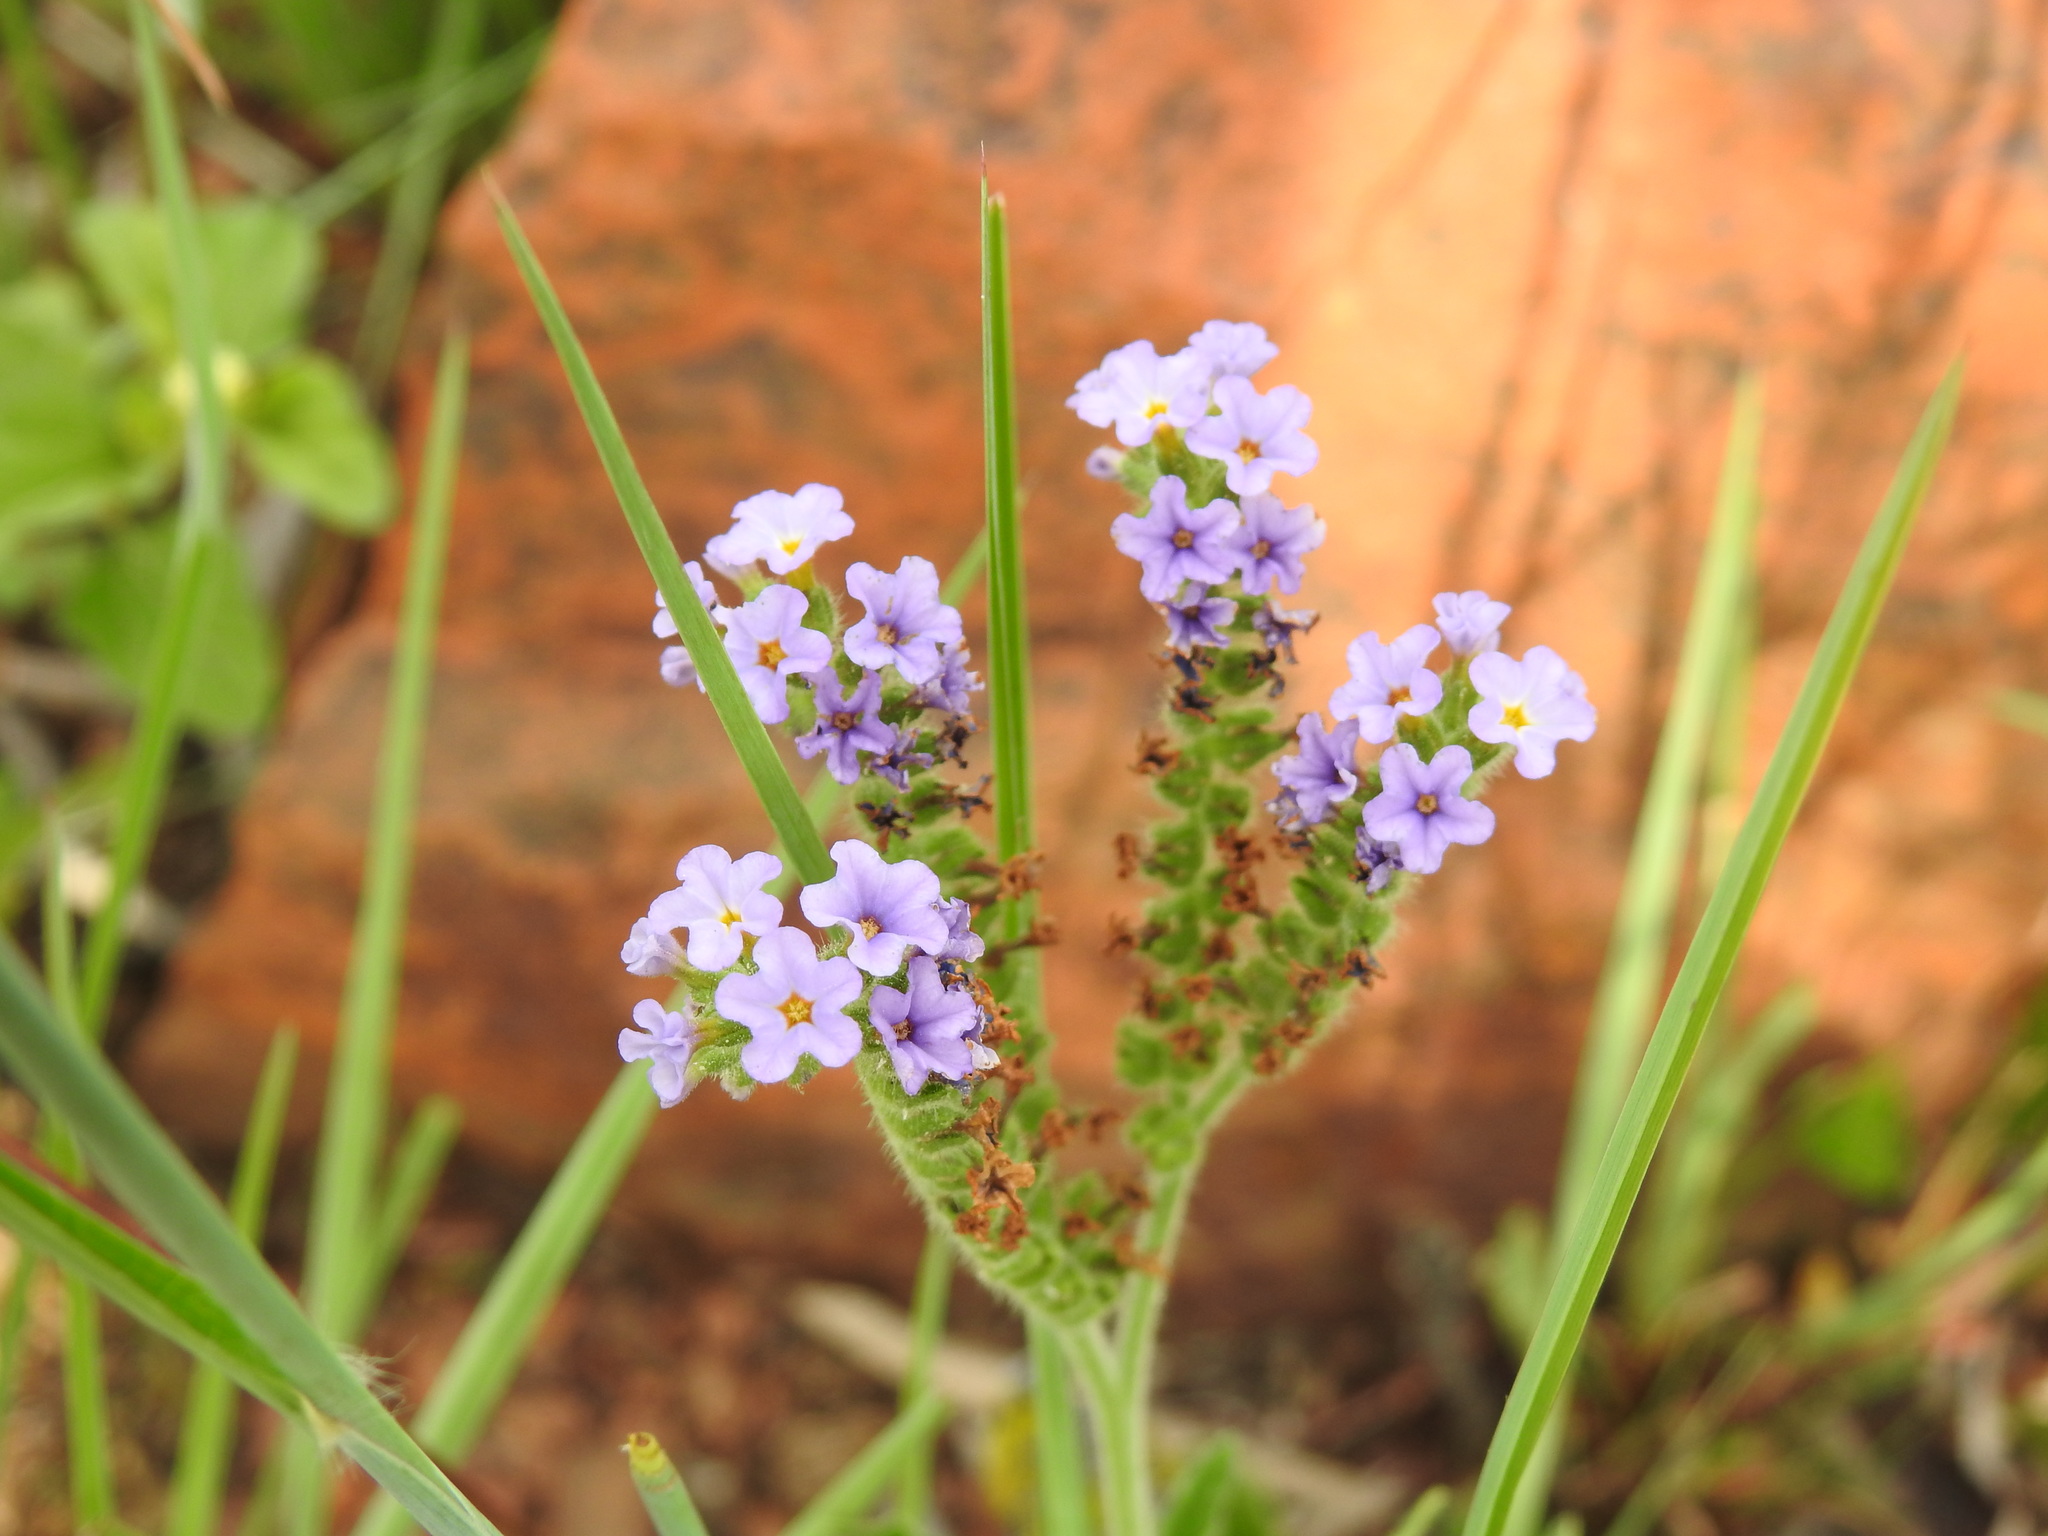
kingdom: Plantae
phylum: Tracheophyta
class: Magnoliopsida
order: Boraginales
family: Heliotropiaceae
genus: Heliotropium
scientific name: Heliotropium amplexicaule
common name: Clasping heliotrope
